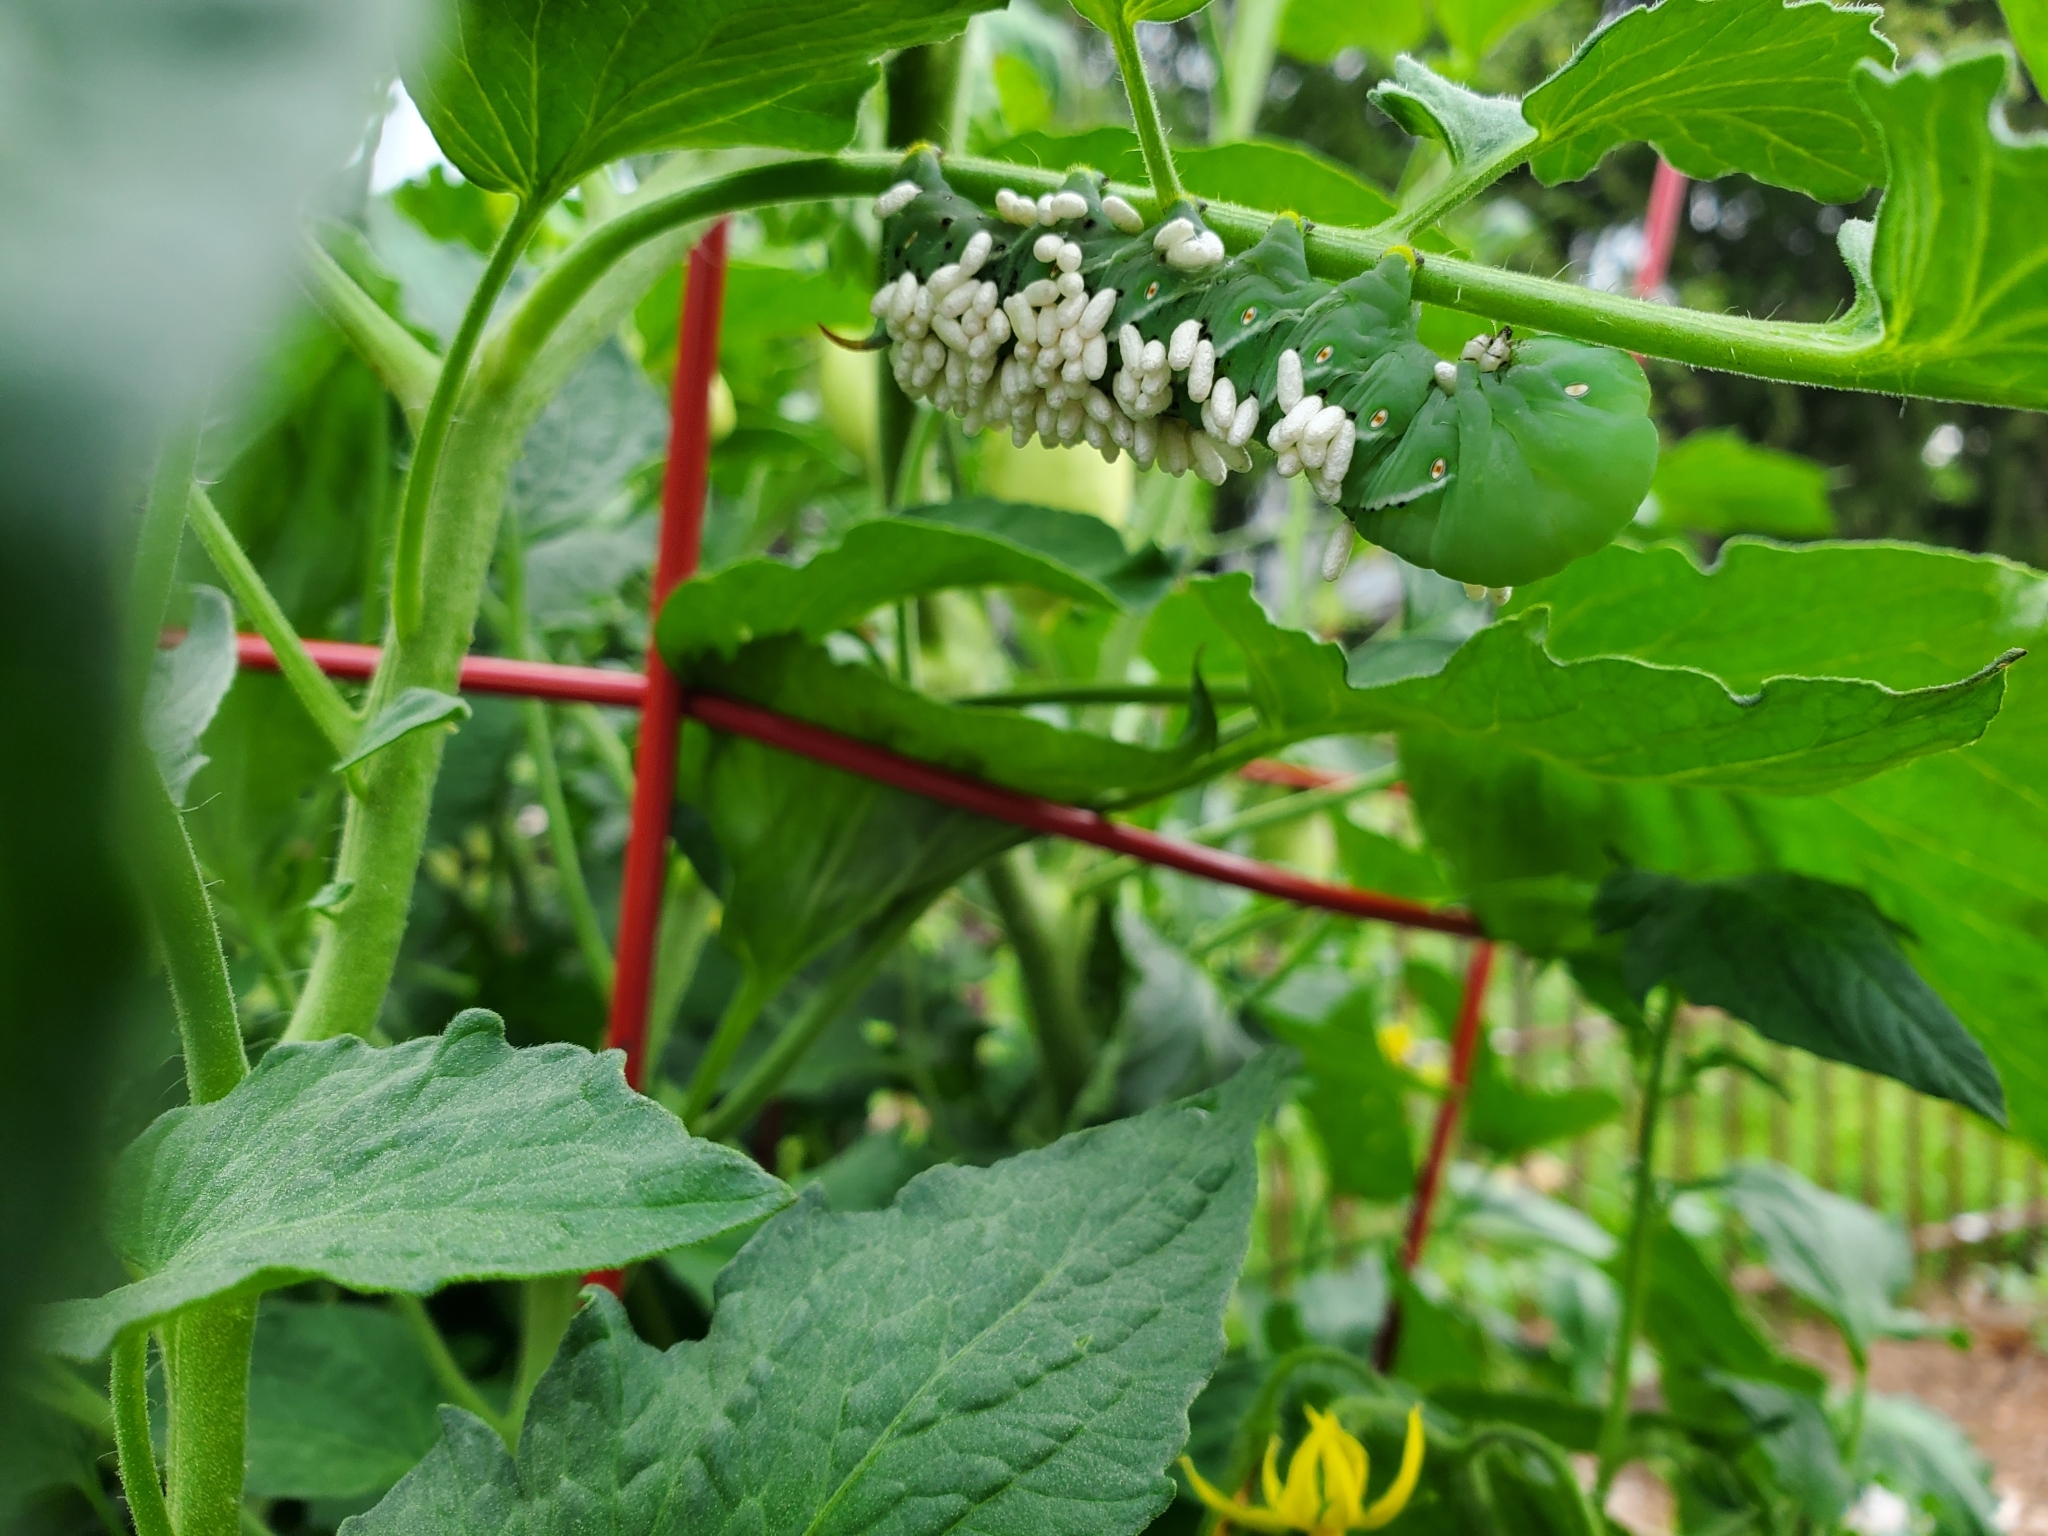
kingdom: Animalia
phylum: Arthropoda
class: Insecta
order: Hymenoptera
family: Braconidae
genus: Cotesia
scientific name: Cotesia congregata
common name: Hornworm parasitoid wasp
